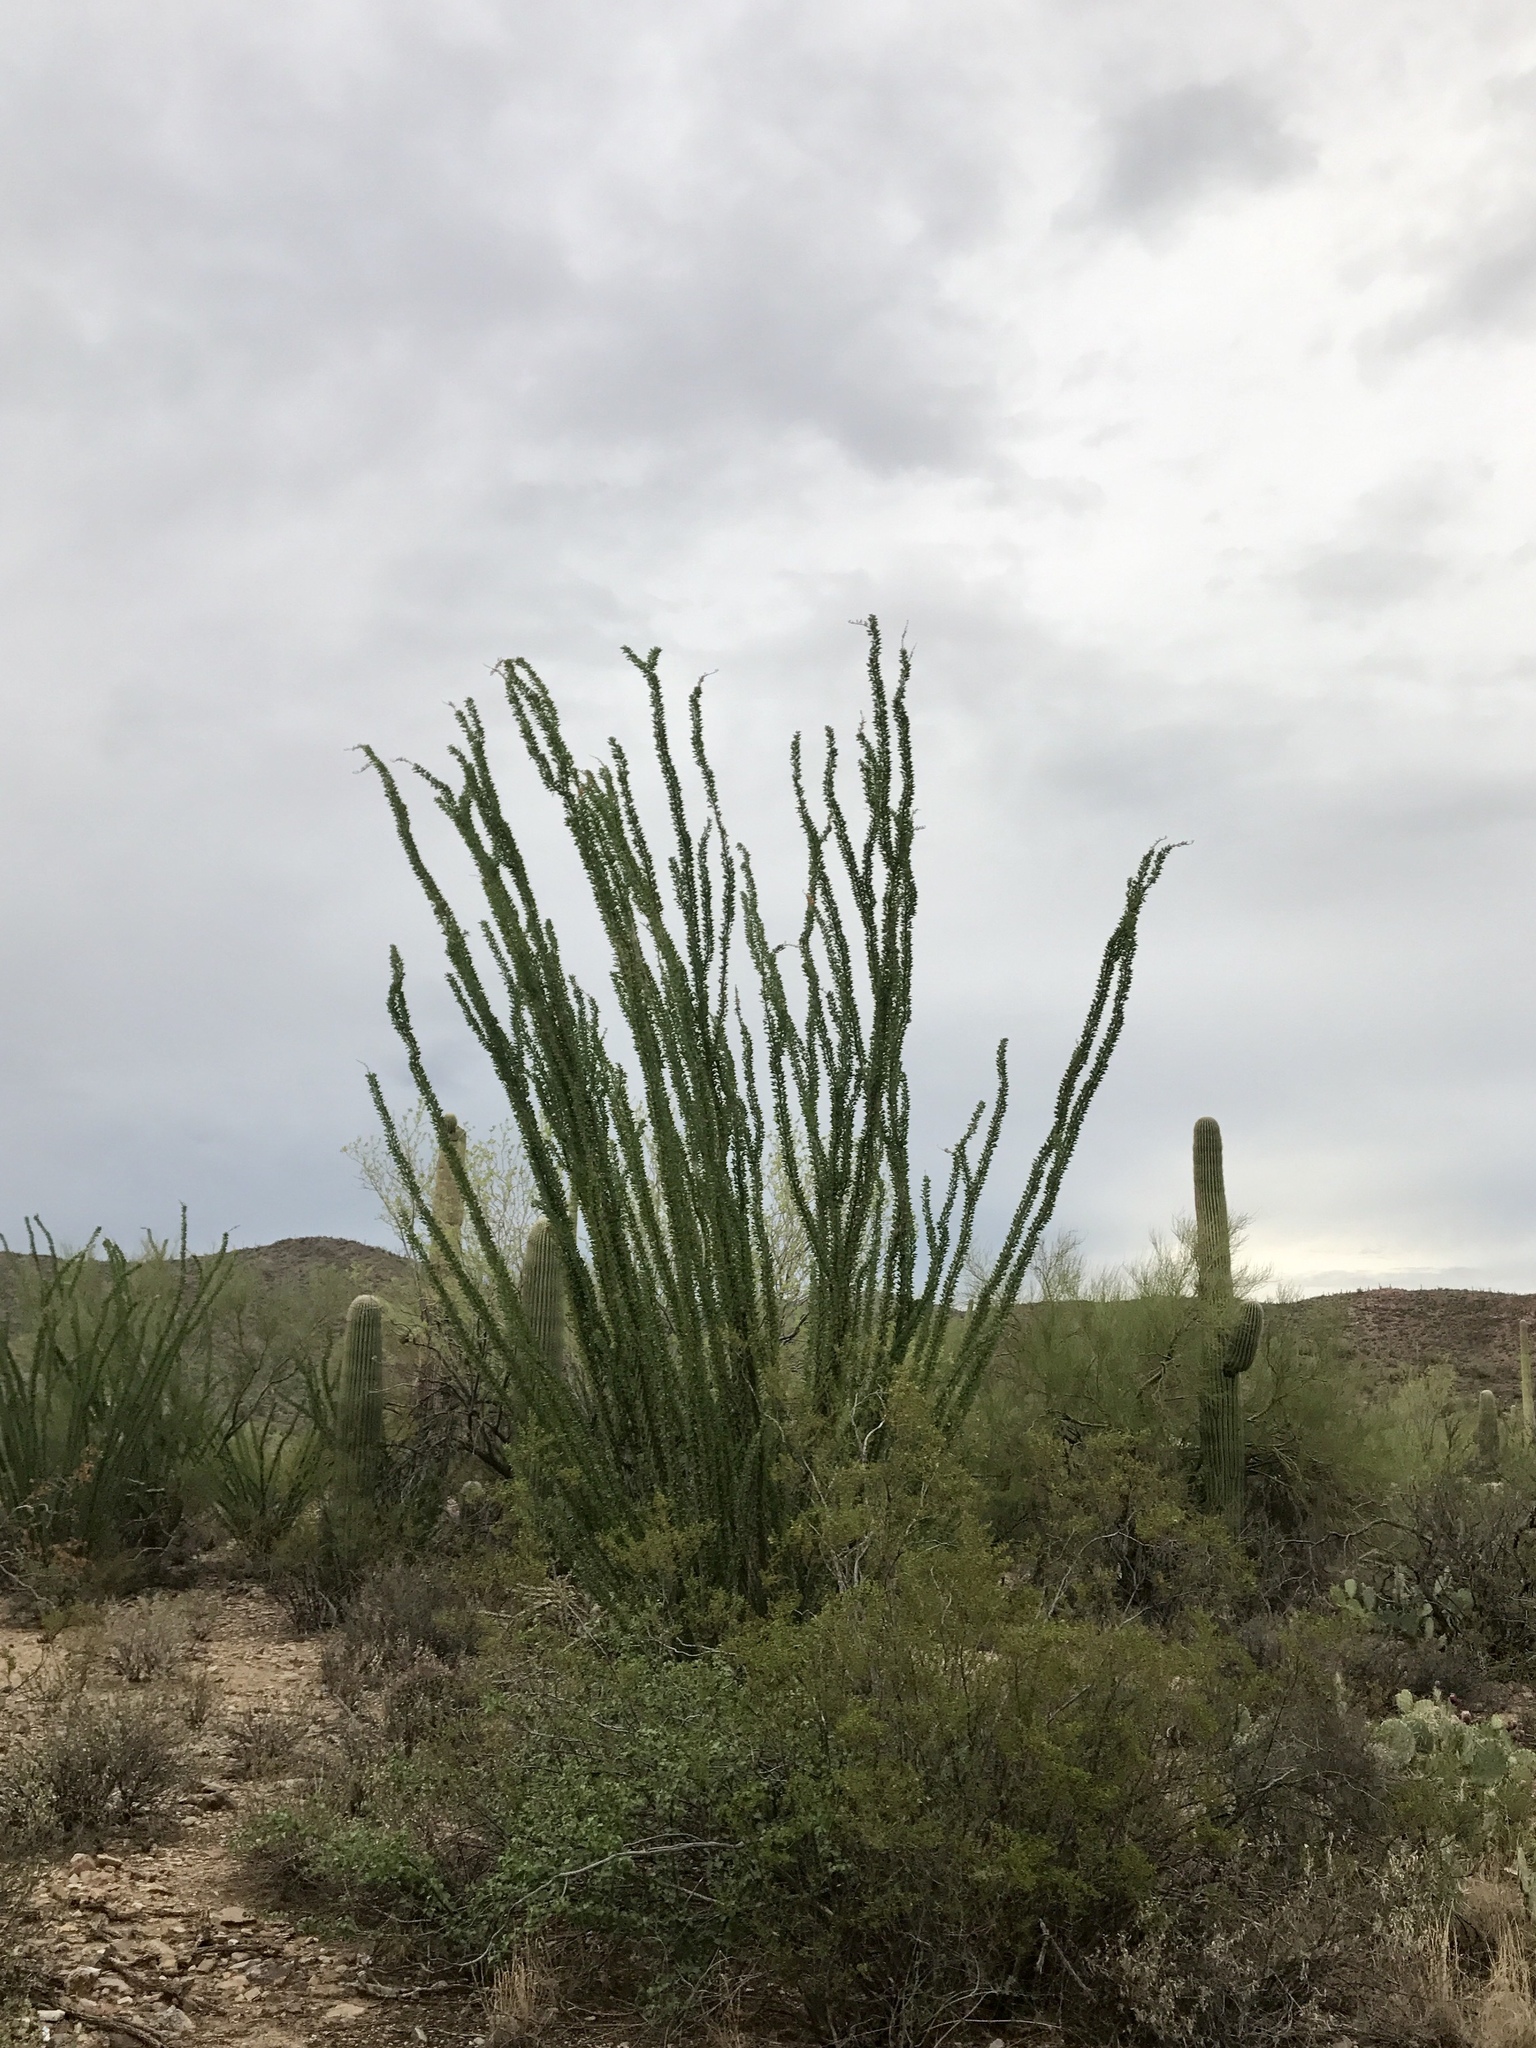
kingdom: Plantae
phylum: Tracheophyta
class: Magnoliopsida
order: Ericales
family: Fouquieriaceae
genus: Fouquieria
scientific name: Fouquieria splendens
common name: Vine-cactus
